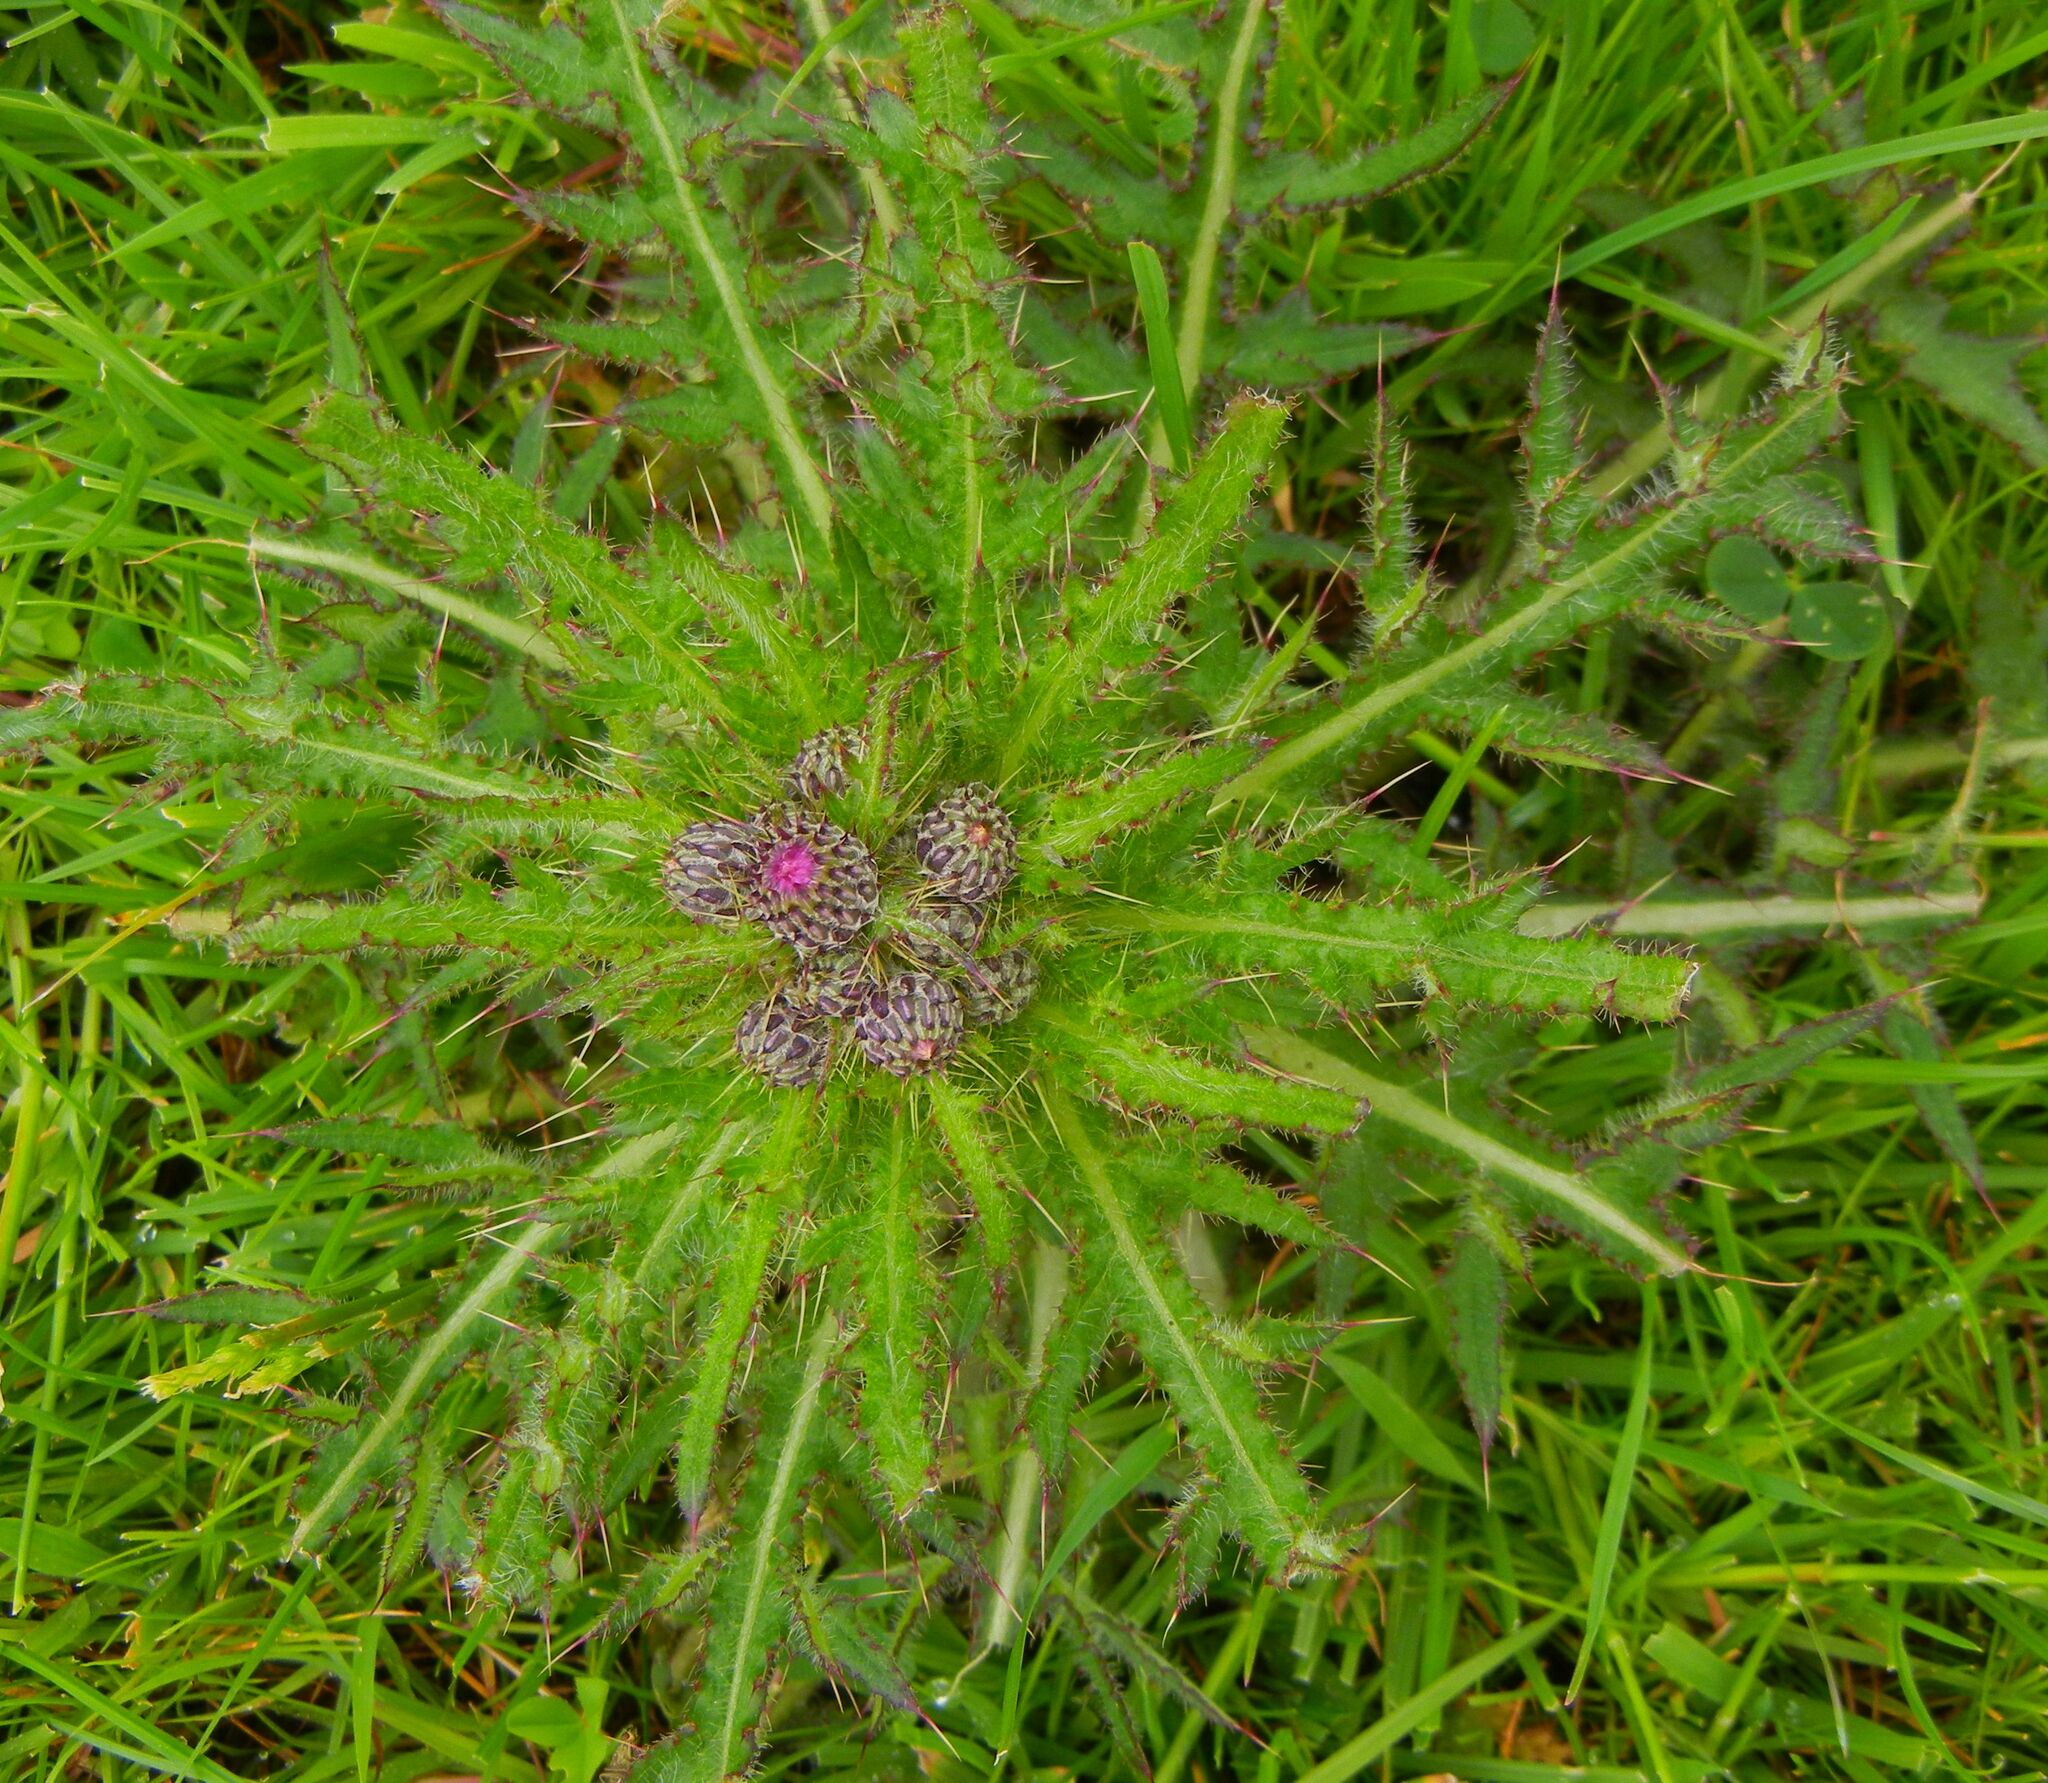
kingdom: Plantae
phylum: Tracheophyta
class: Magnoliopsida
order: Asterales
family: Asteraceae
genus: Cirsium
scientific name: Cirsium palustre
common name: Marsh thistle
